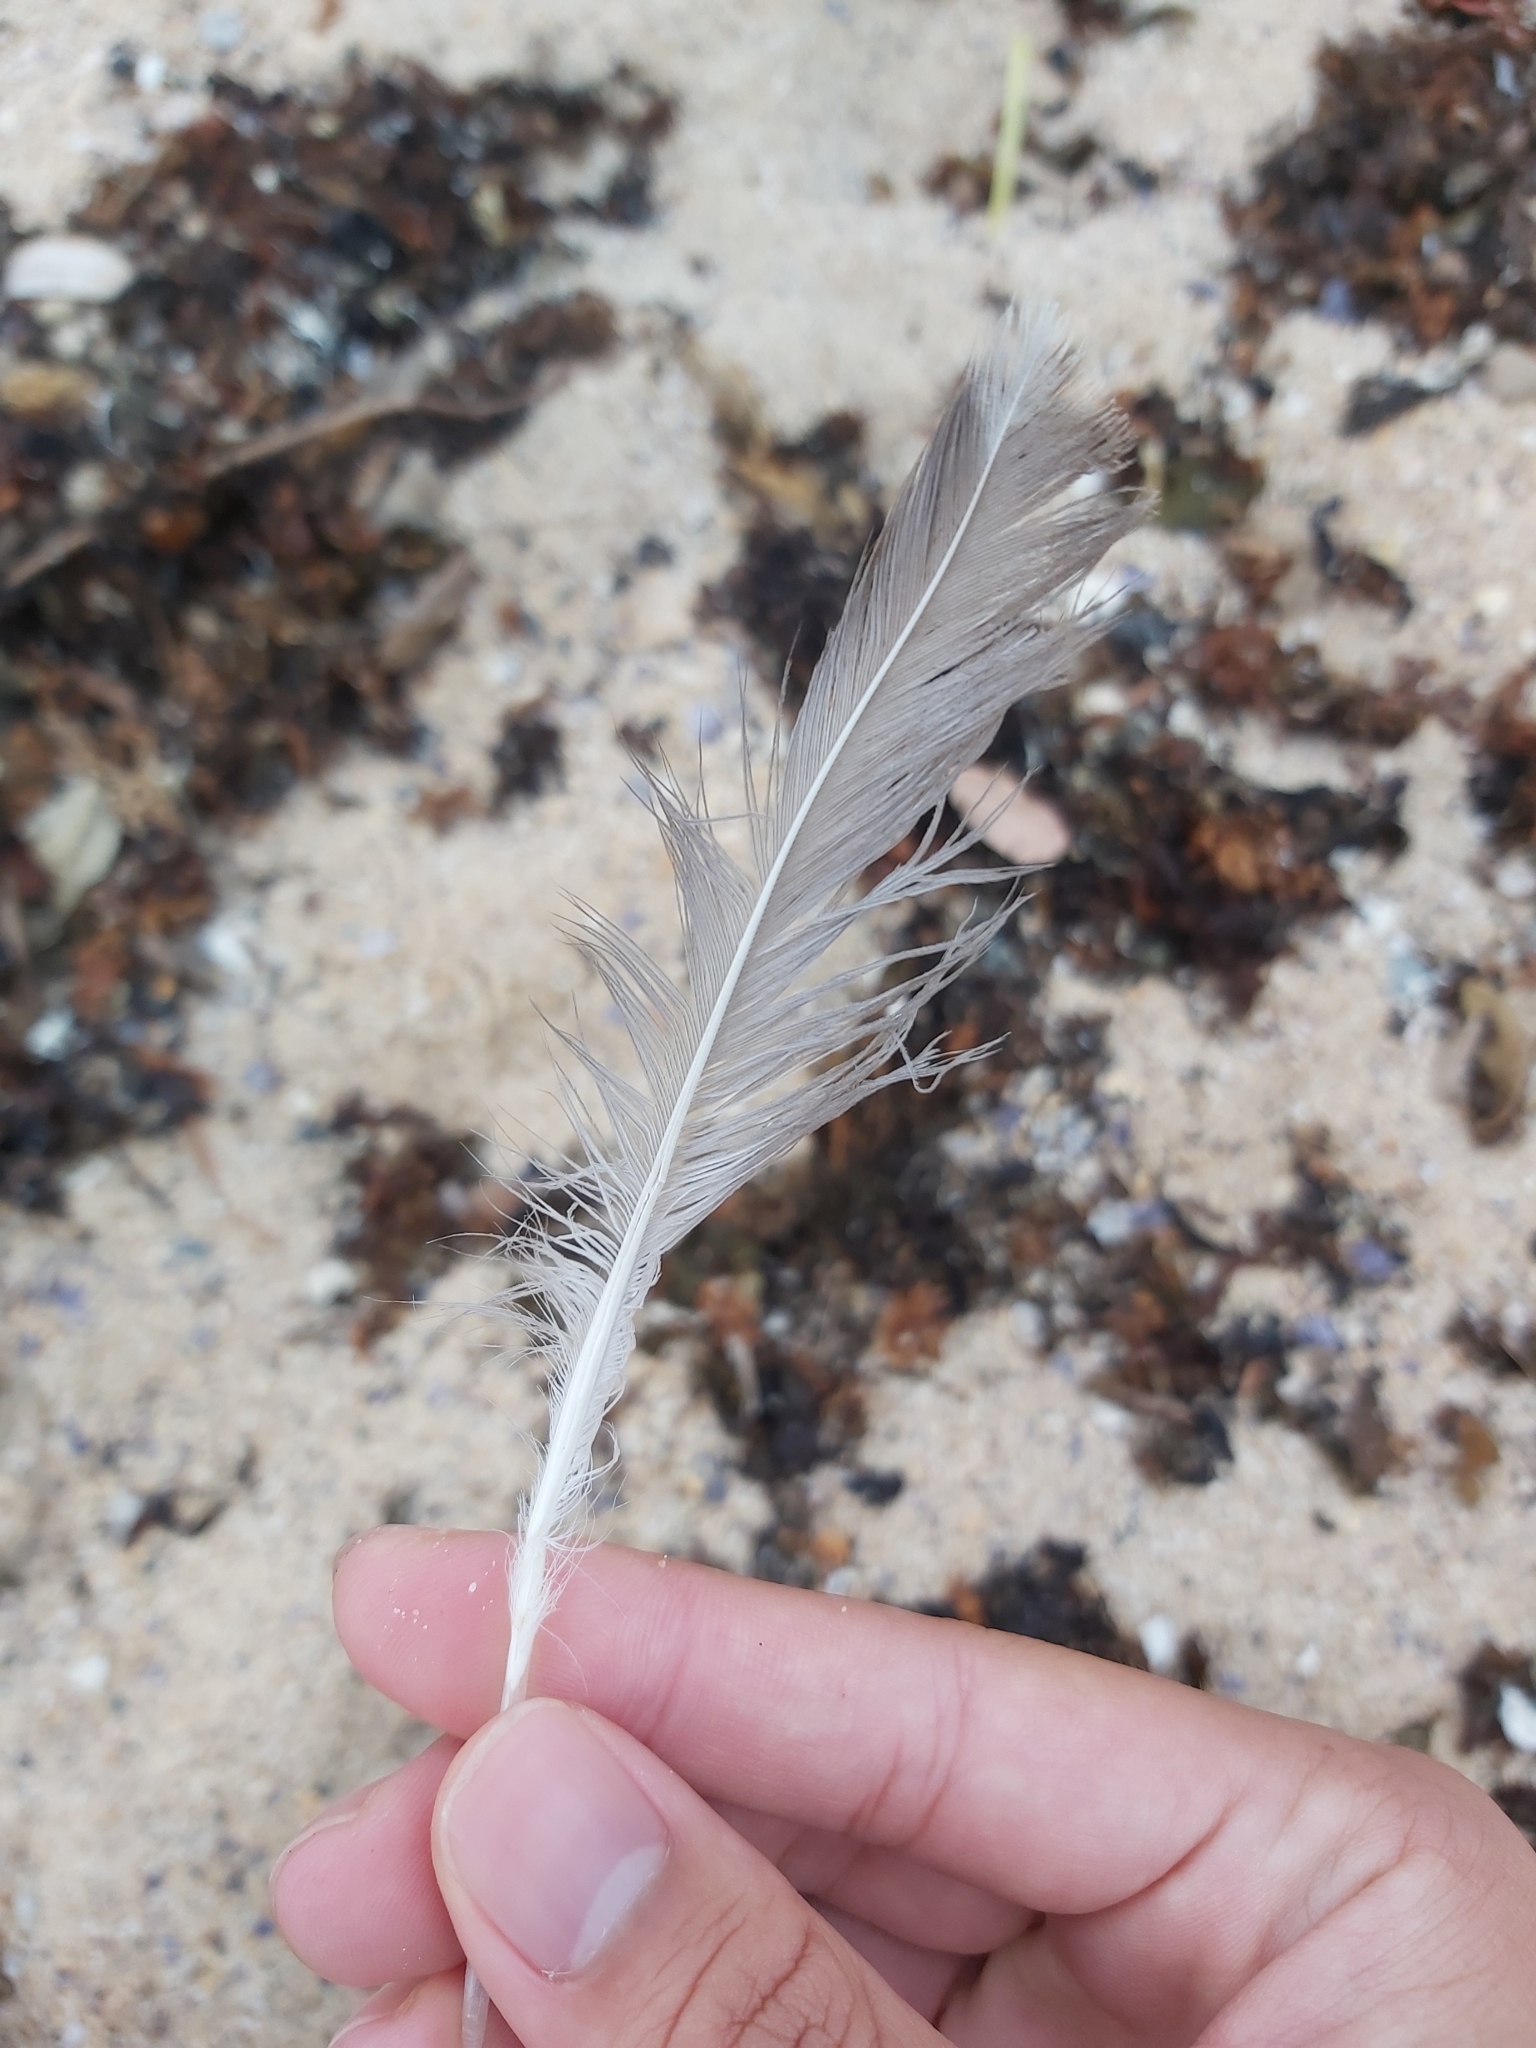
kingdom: Animalia
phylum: Chordata
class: Aves
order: Charadriiformes
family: Laridae
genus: Chroicocephalus
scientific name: Chroicocephalus novaehollandiae
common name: Silver gull
